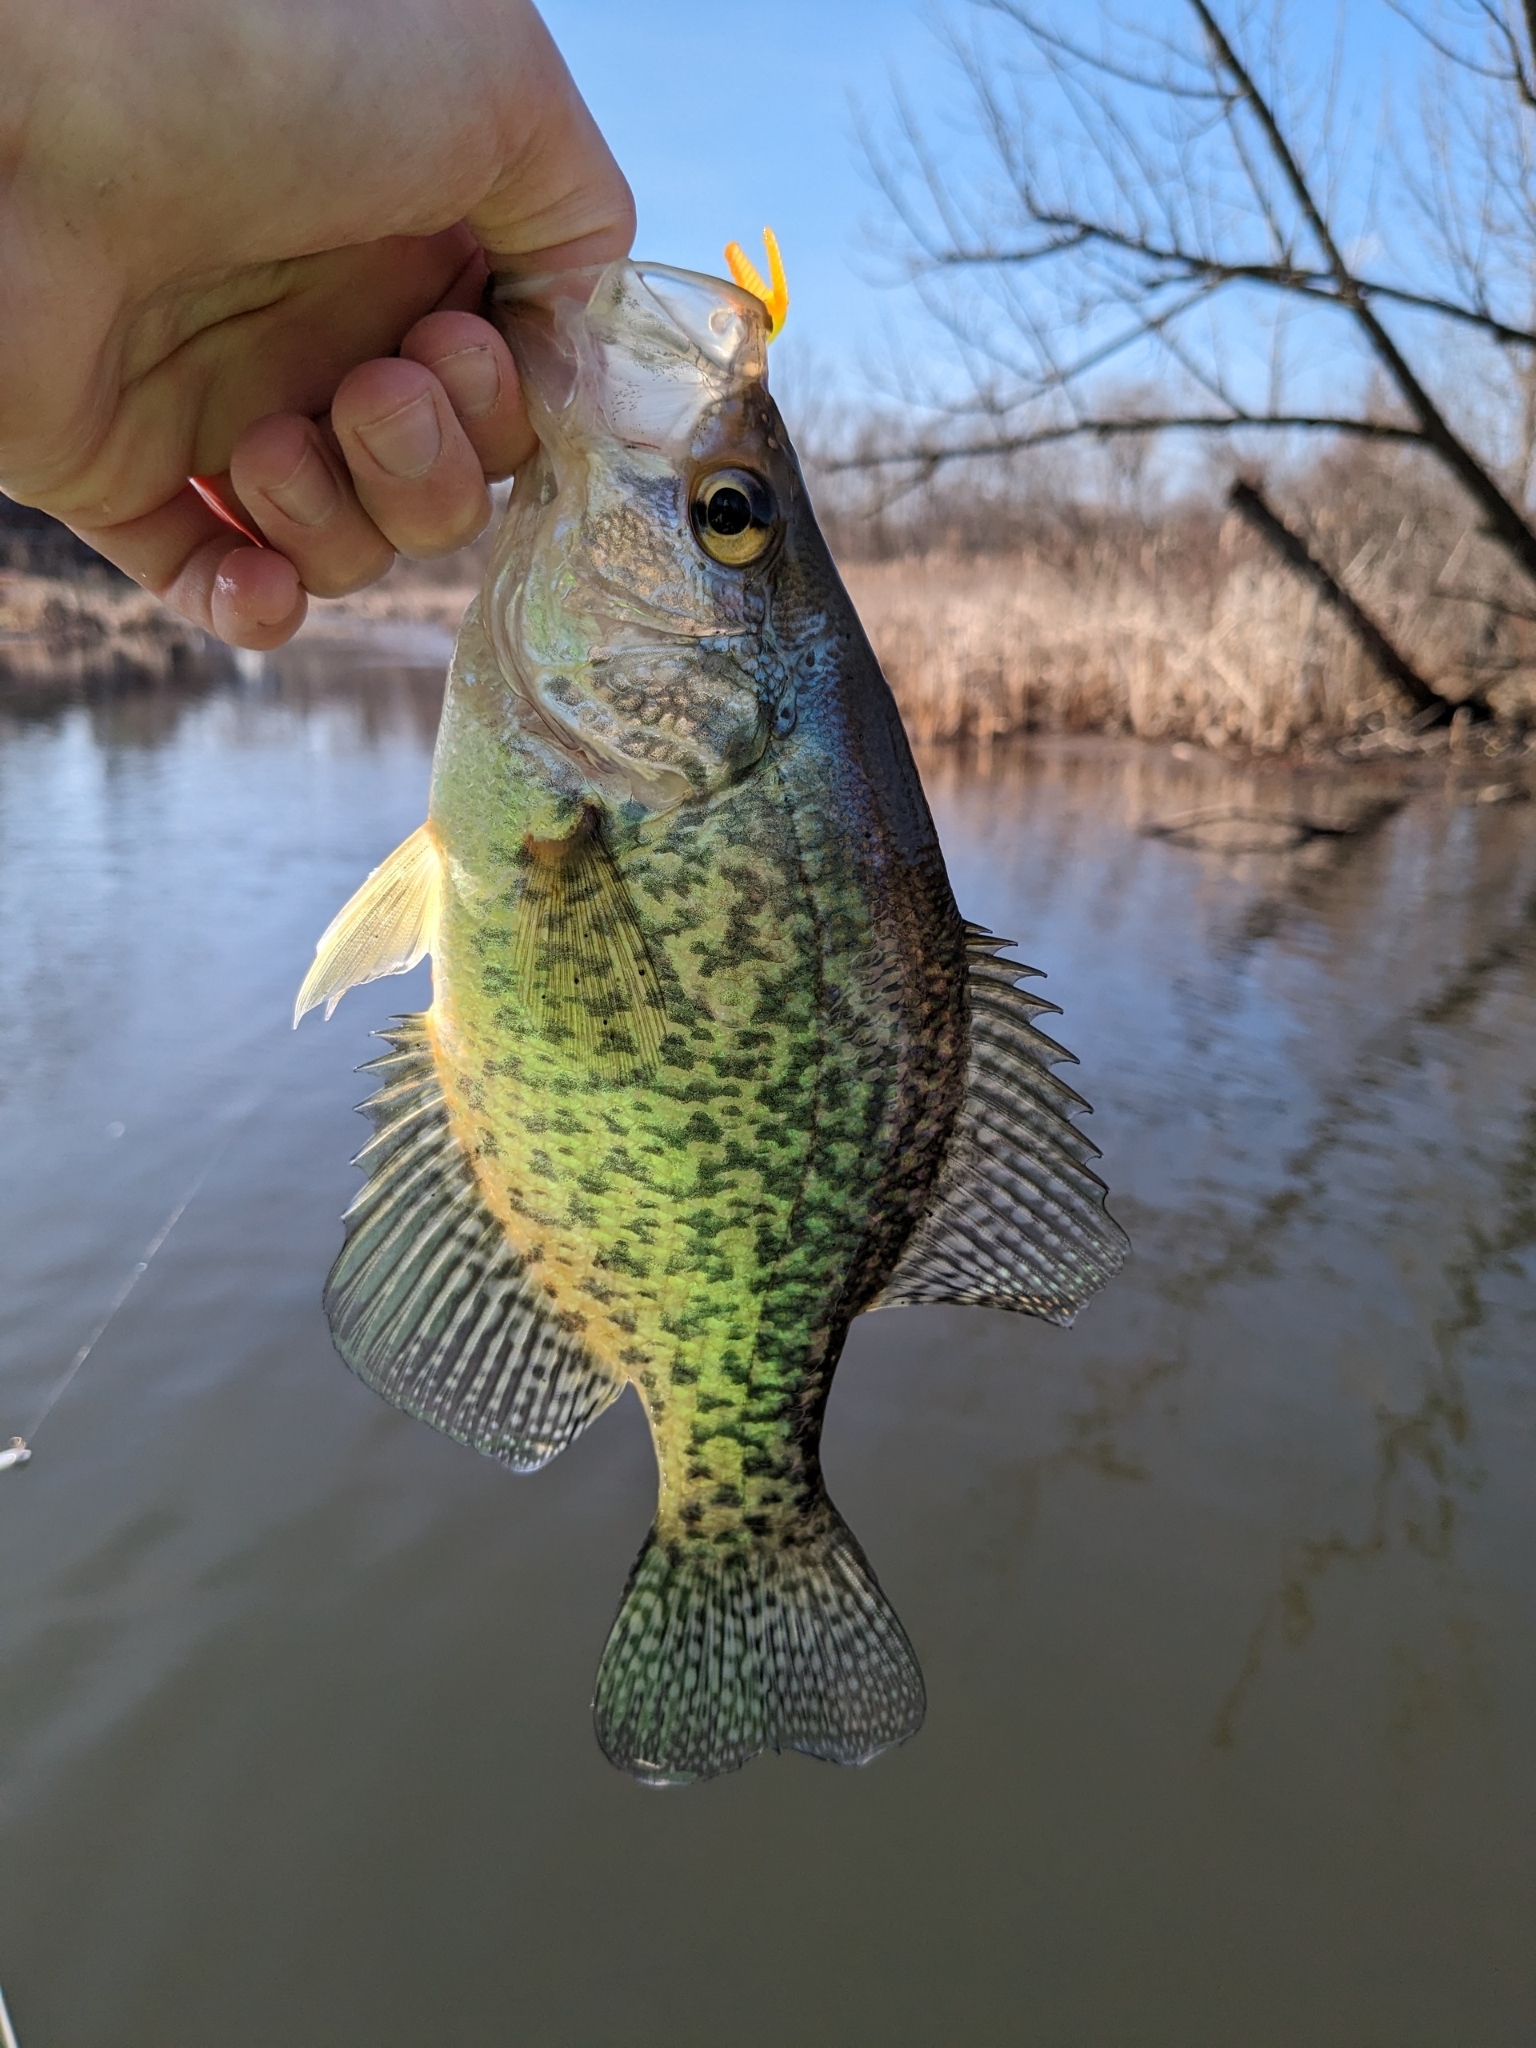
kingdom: Animalia
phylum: Chordata
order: Perciformes
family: Centrarchidae
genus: Pomoxis
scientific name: Pomoxis nigromaculatus
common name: Black crappie
